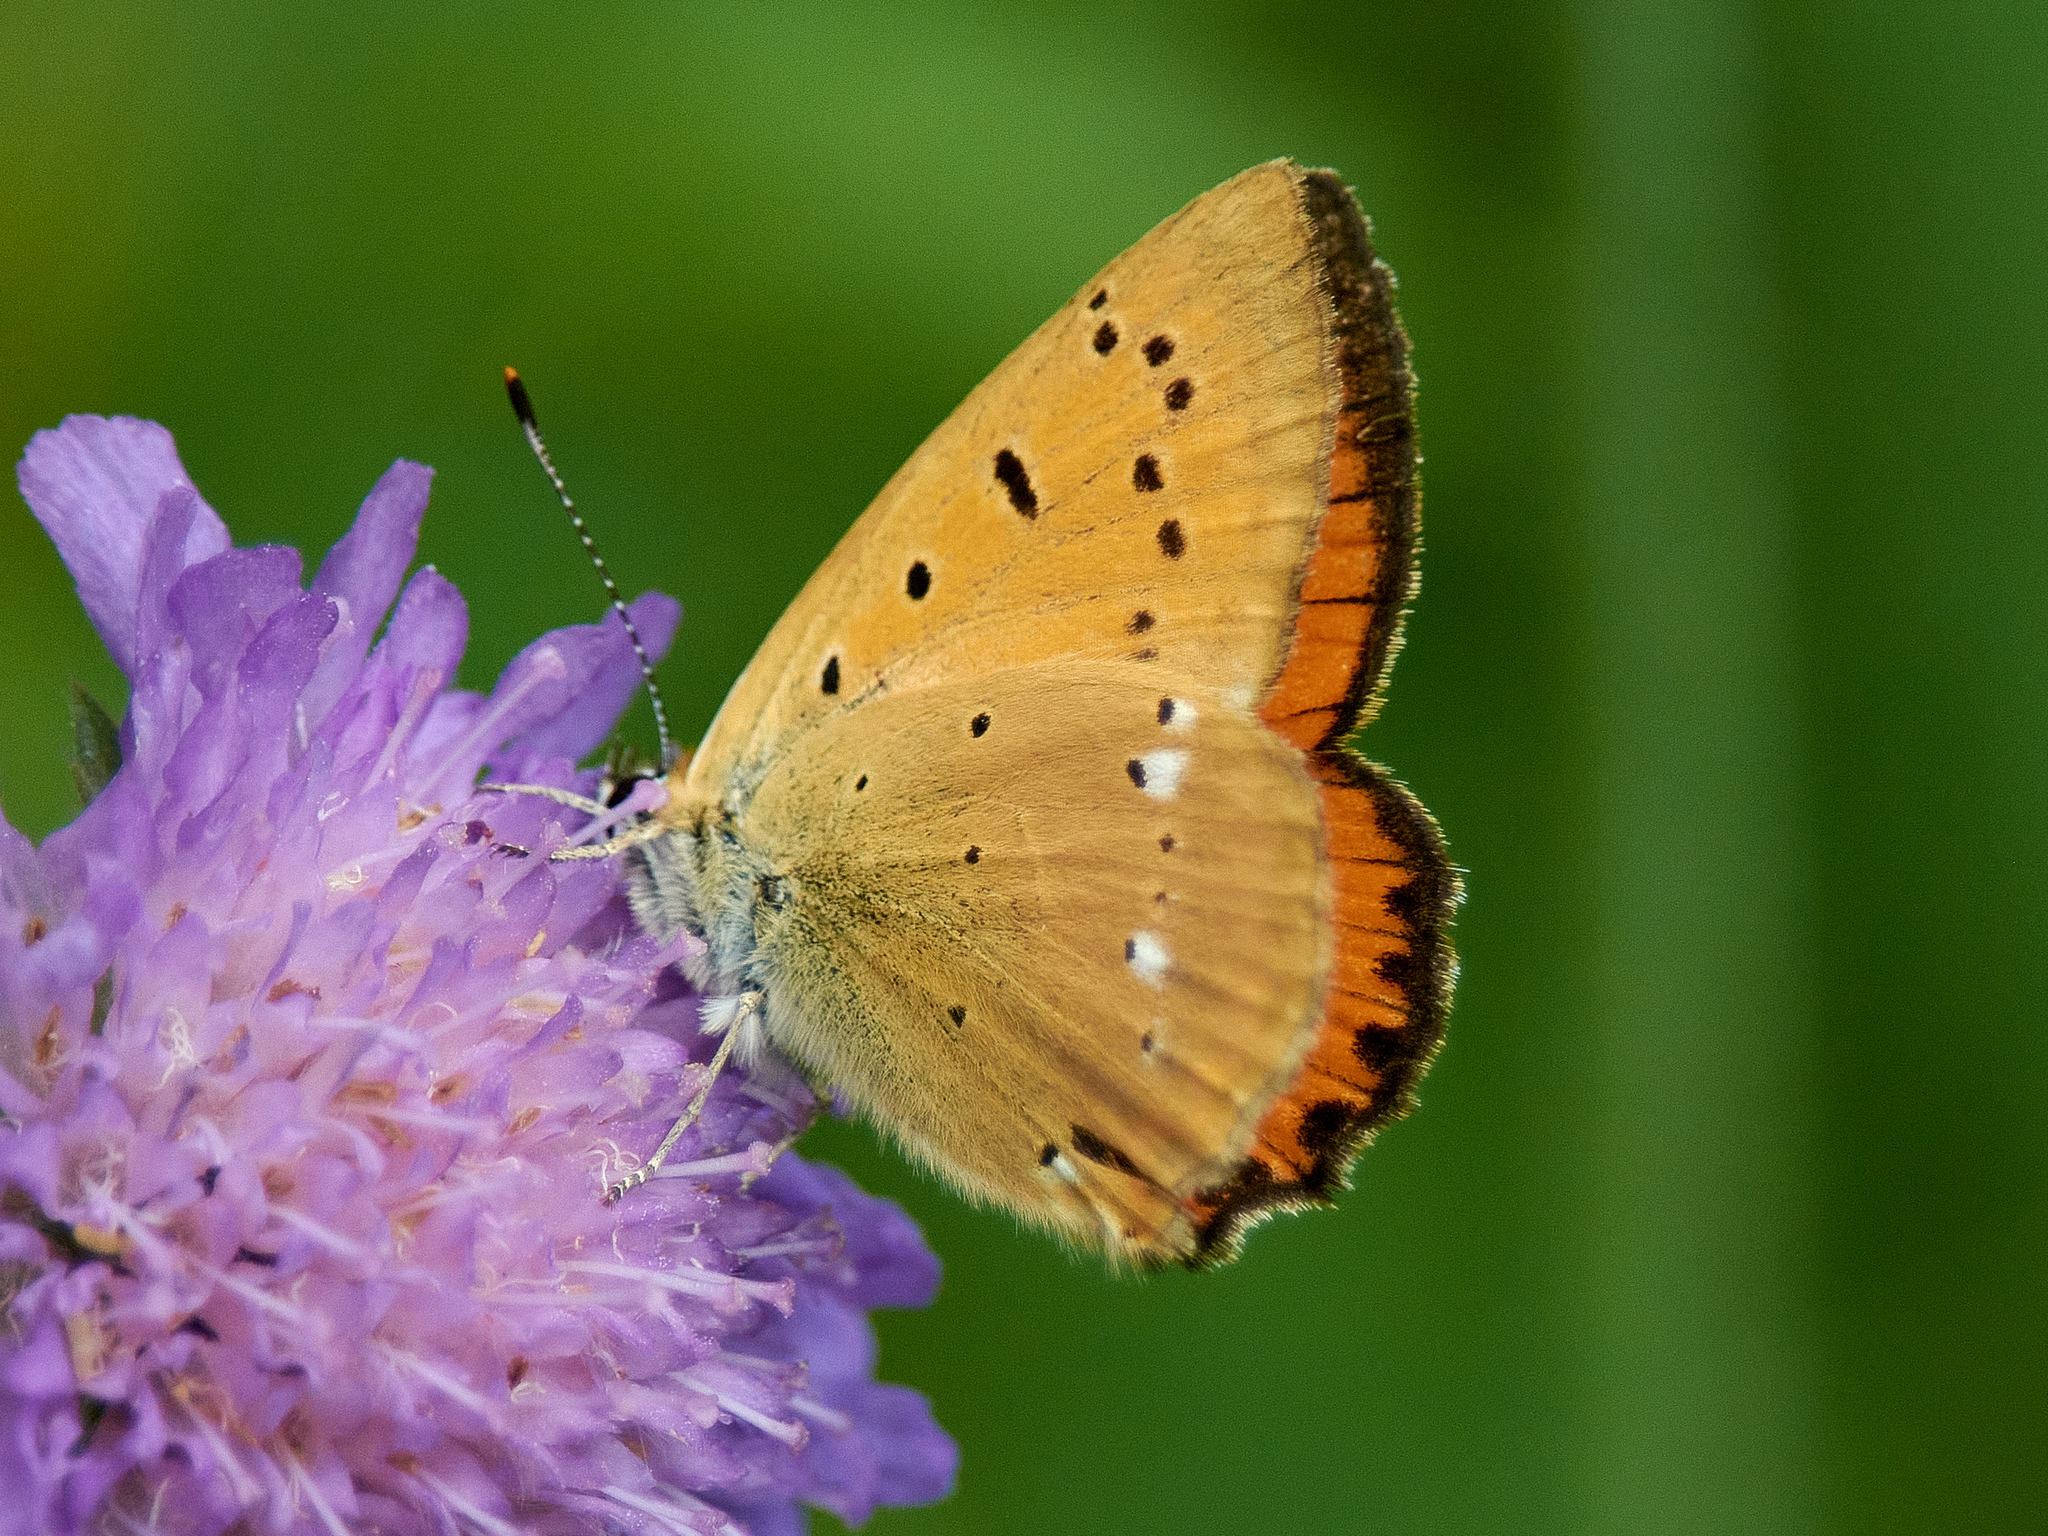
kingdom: Animalia
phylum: Arthropoda
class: Insecta
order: Lepidoptera
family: Lycaenidae
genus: Lycaena
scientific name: Lycaena virgaureae
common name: Scarce copper
